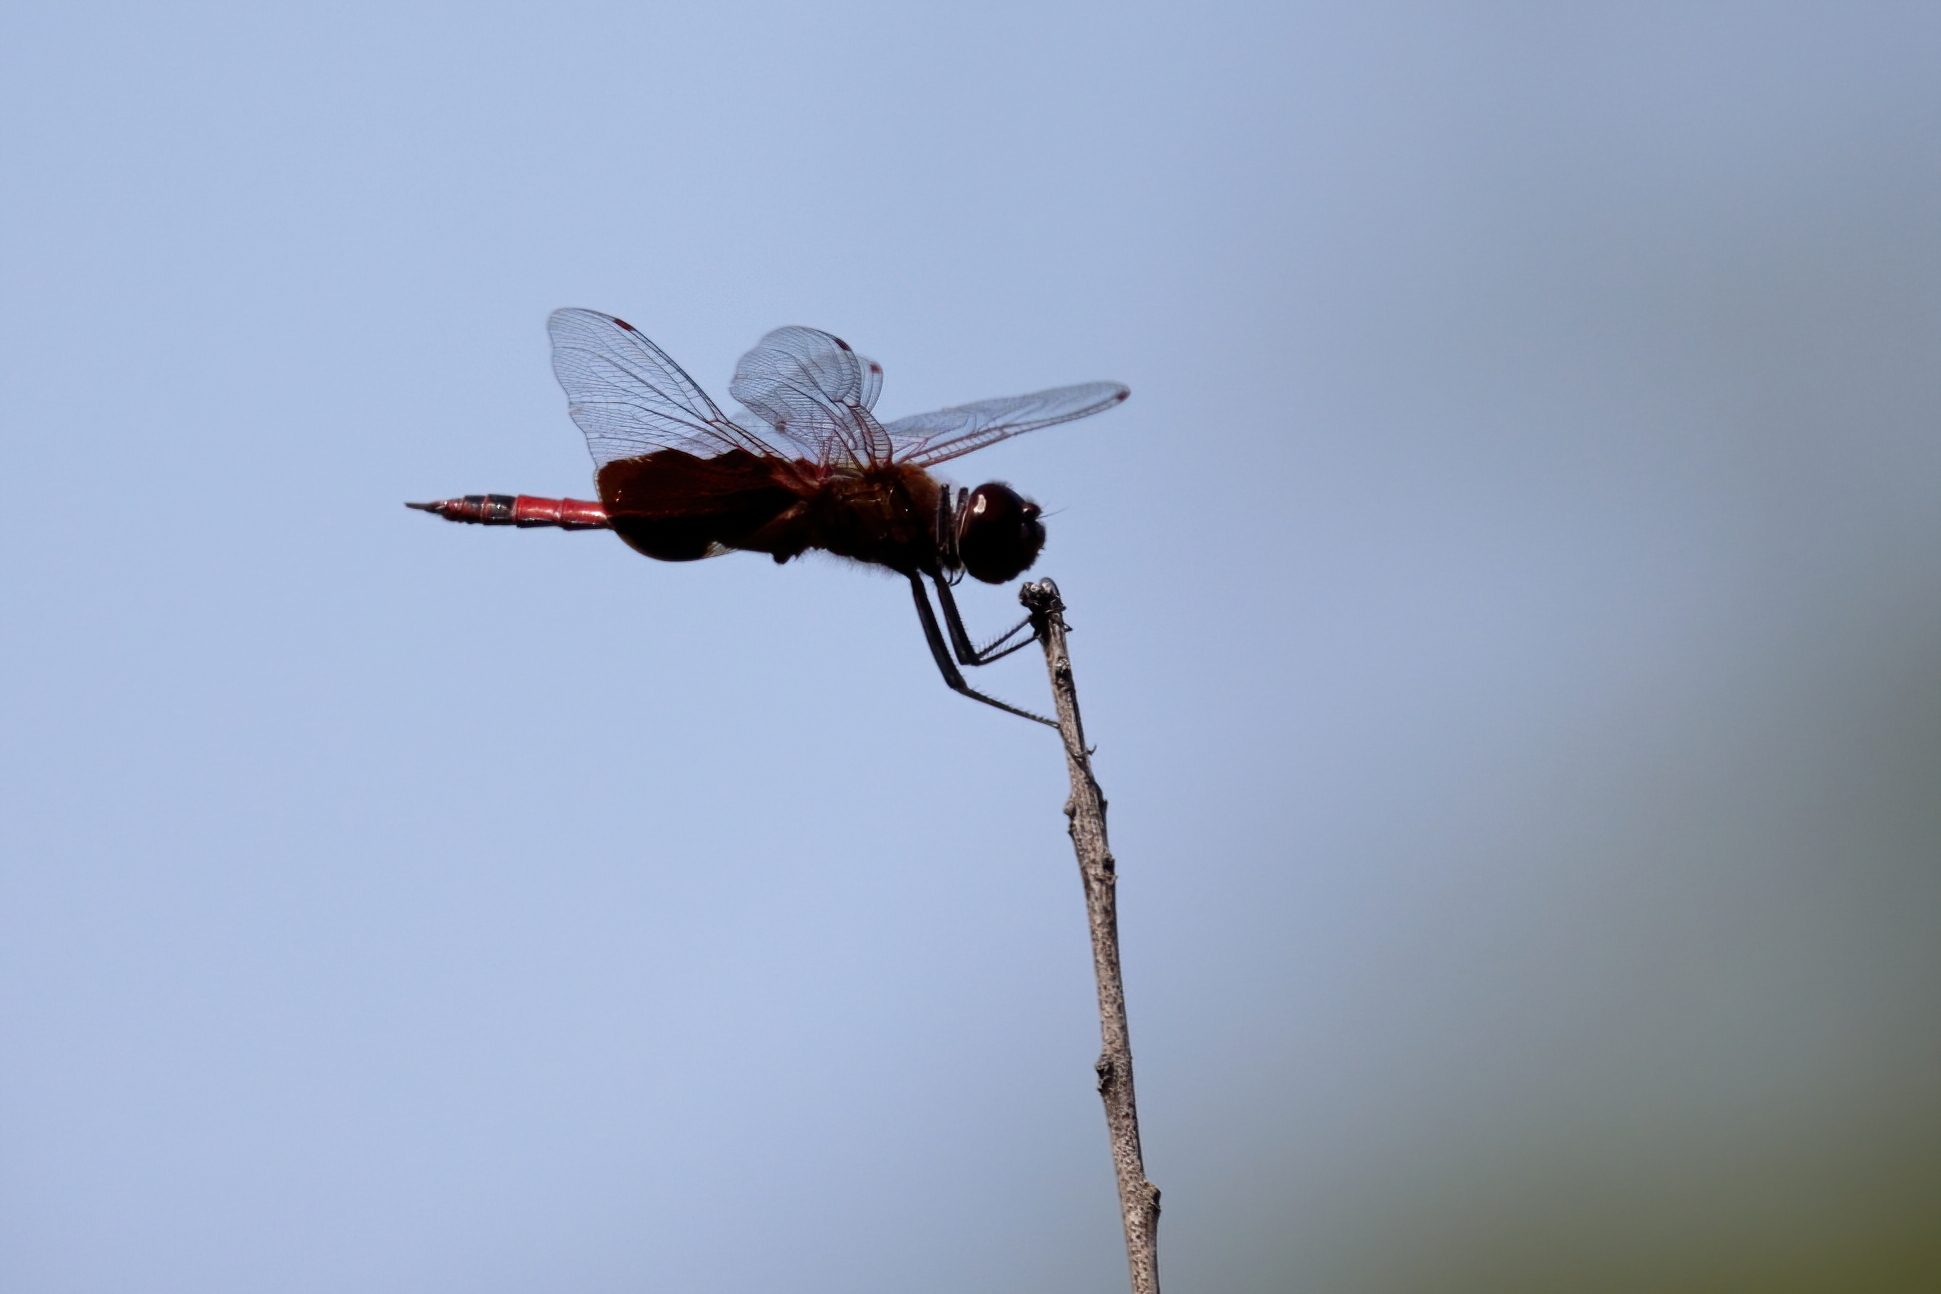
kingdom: Animalia
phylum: Arthropoda
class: Insecta
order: Odonata
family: Libellulidae
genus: Tramea
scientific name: Tramea carolina
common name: Carolina saddlebags
